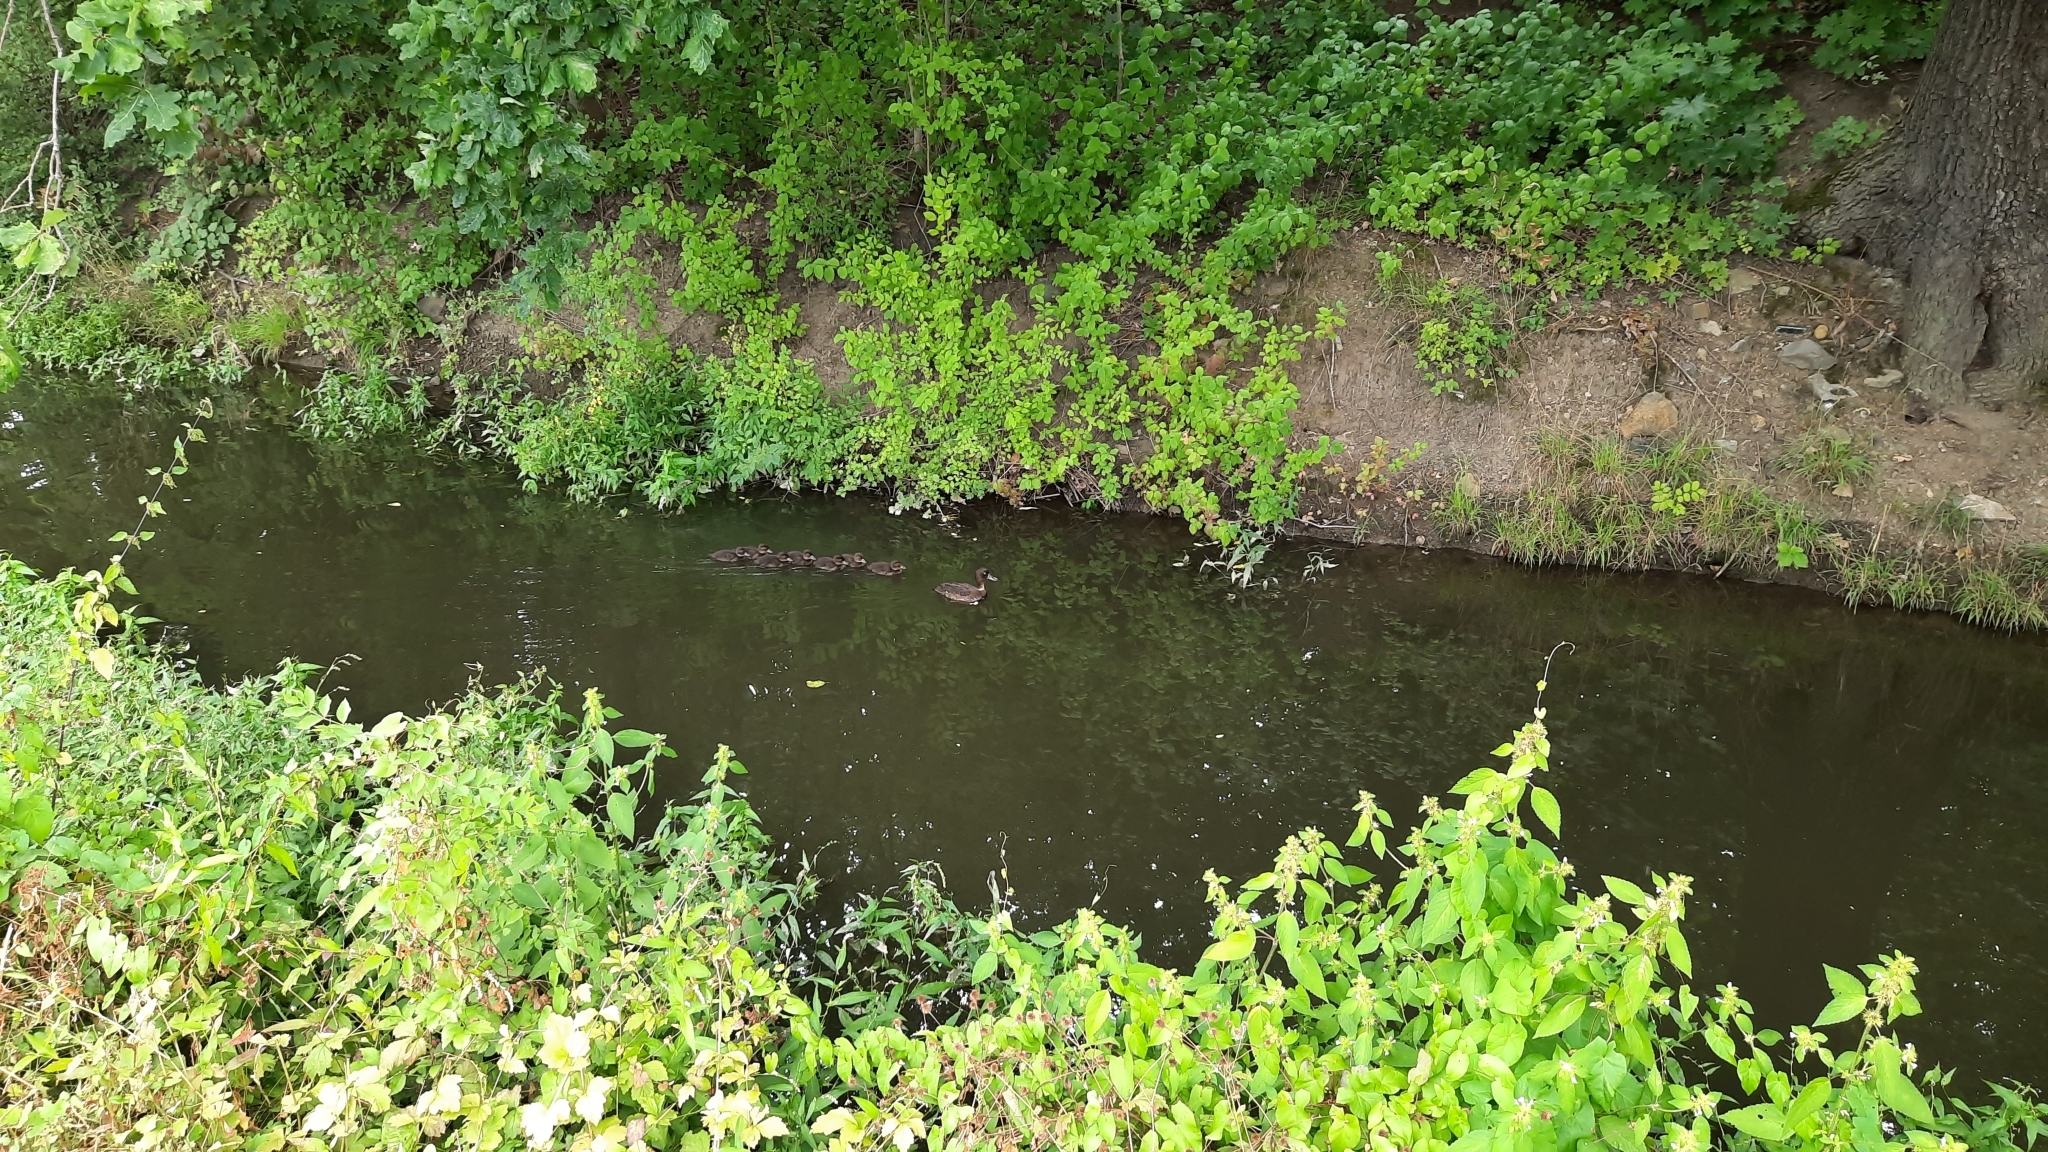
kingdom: Animalia
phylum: Chordata
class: Aves
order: Anseriformes
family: Anatidae
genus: Aythya
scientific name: Aythya fuligula
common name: Tufted duck
